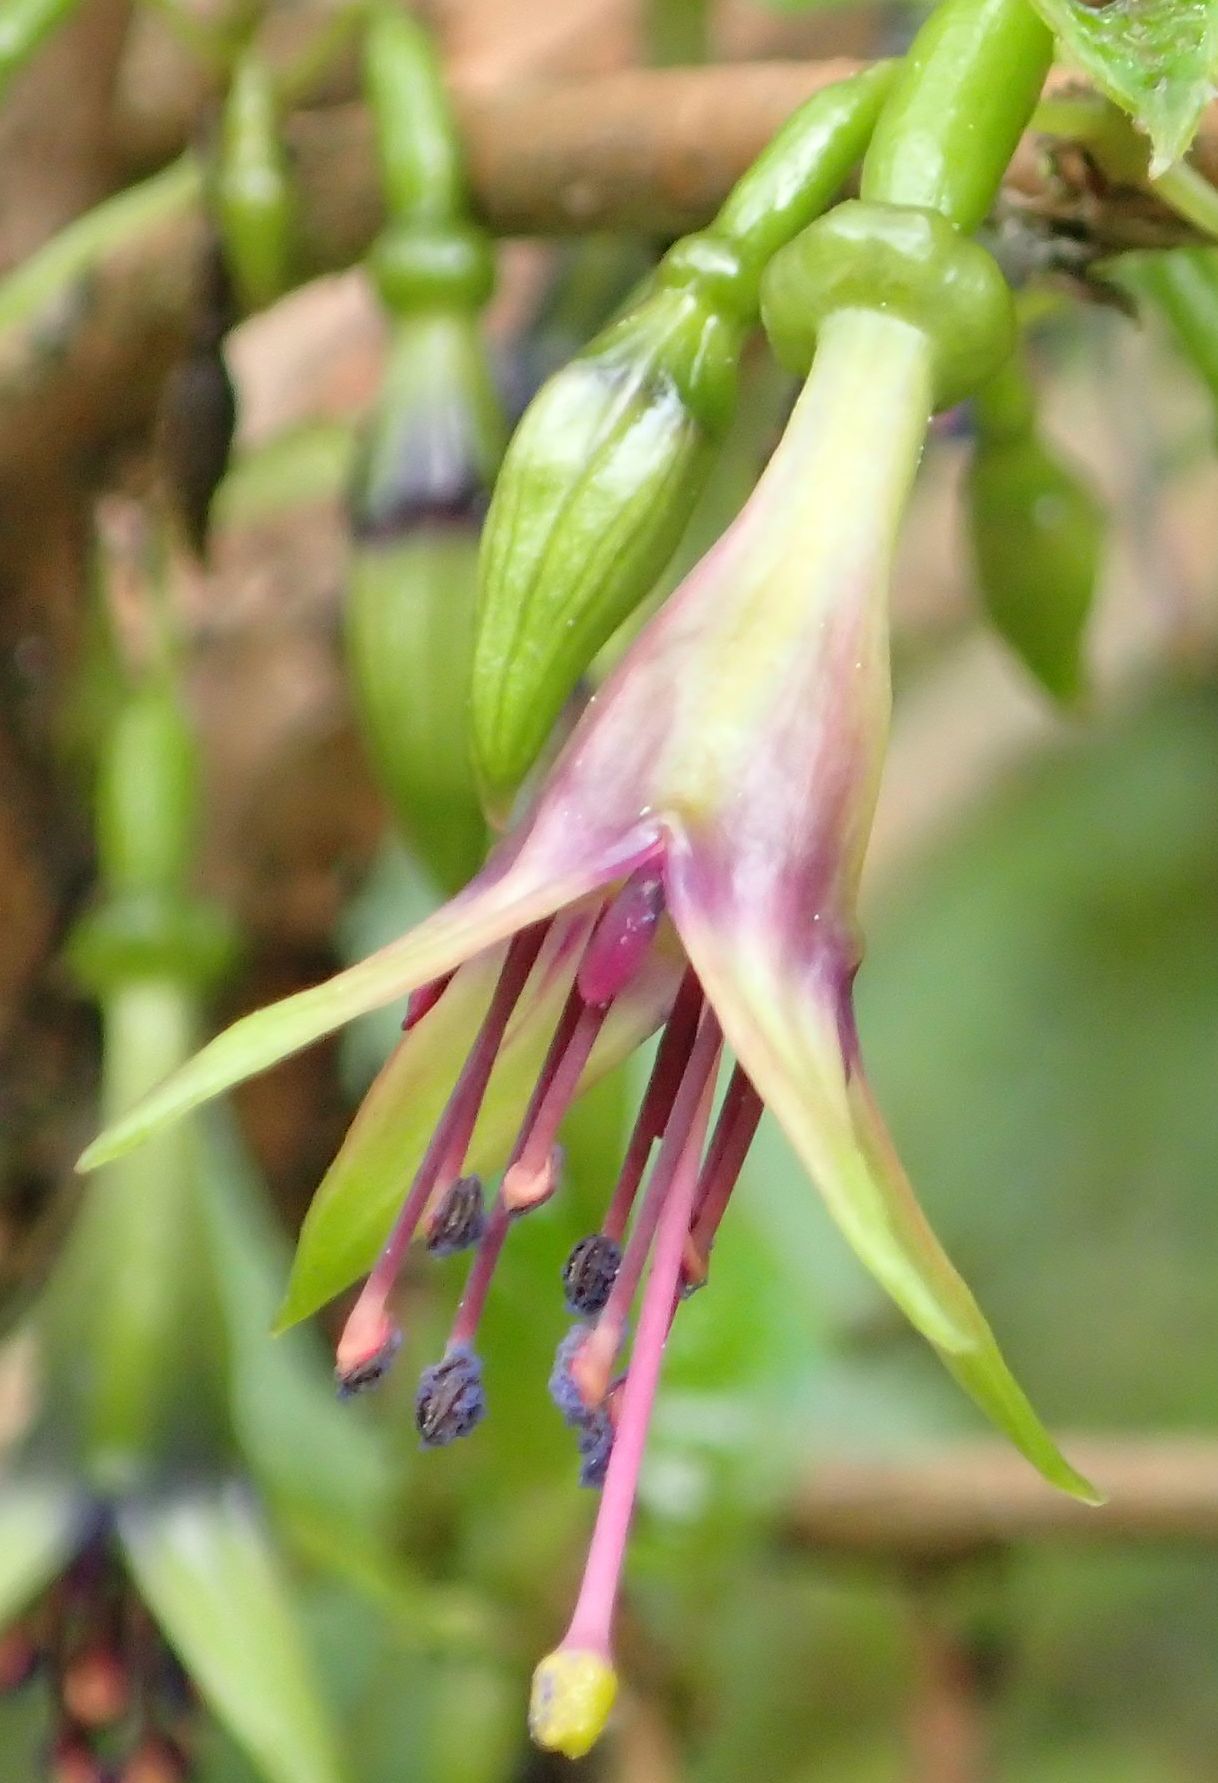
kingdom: Plantae
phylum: Tracheophyta
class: Magnoliopsida
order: Myrtales
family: Onagraceae
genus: Fuchsia
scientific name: Fuchsia excorticata
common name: Tree fuchsia
